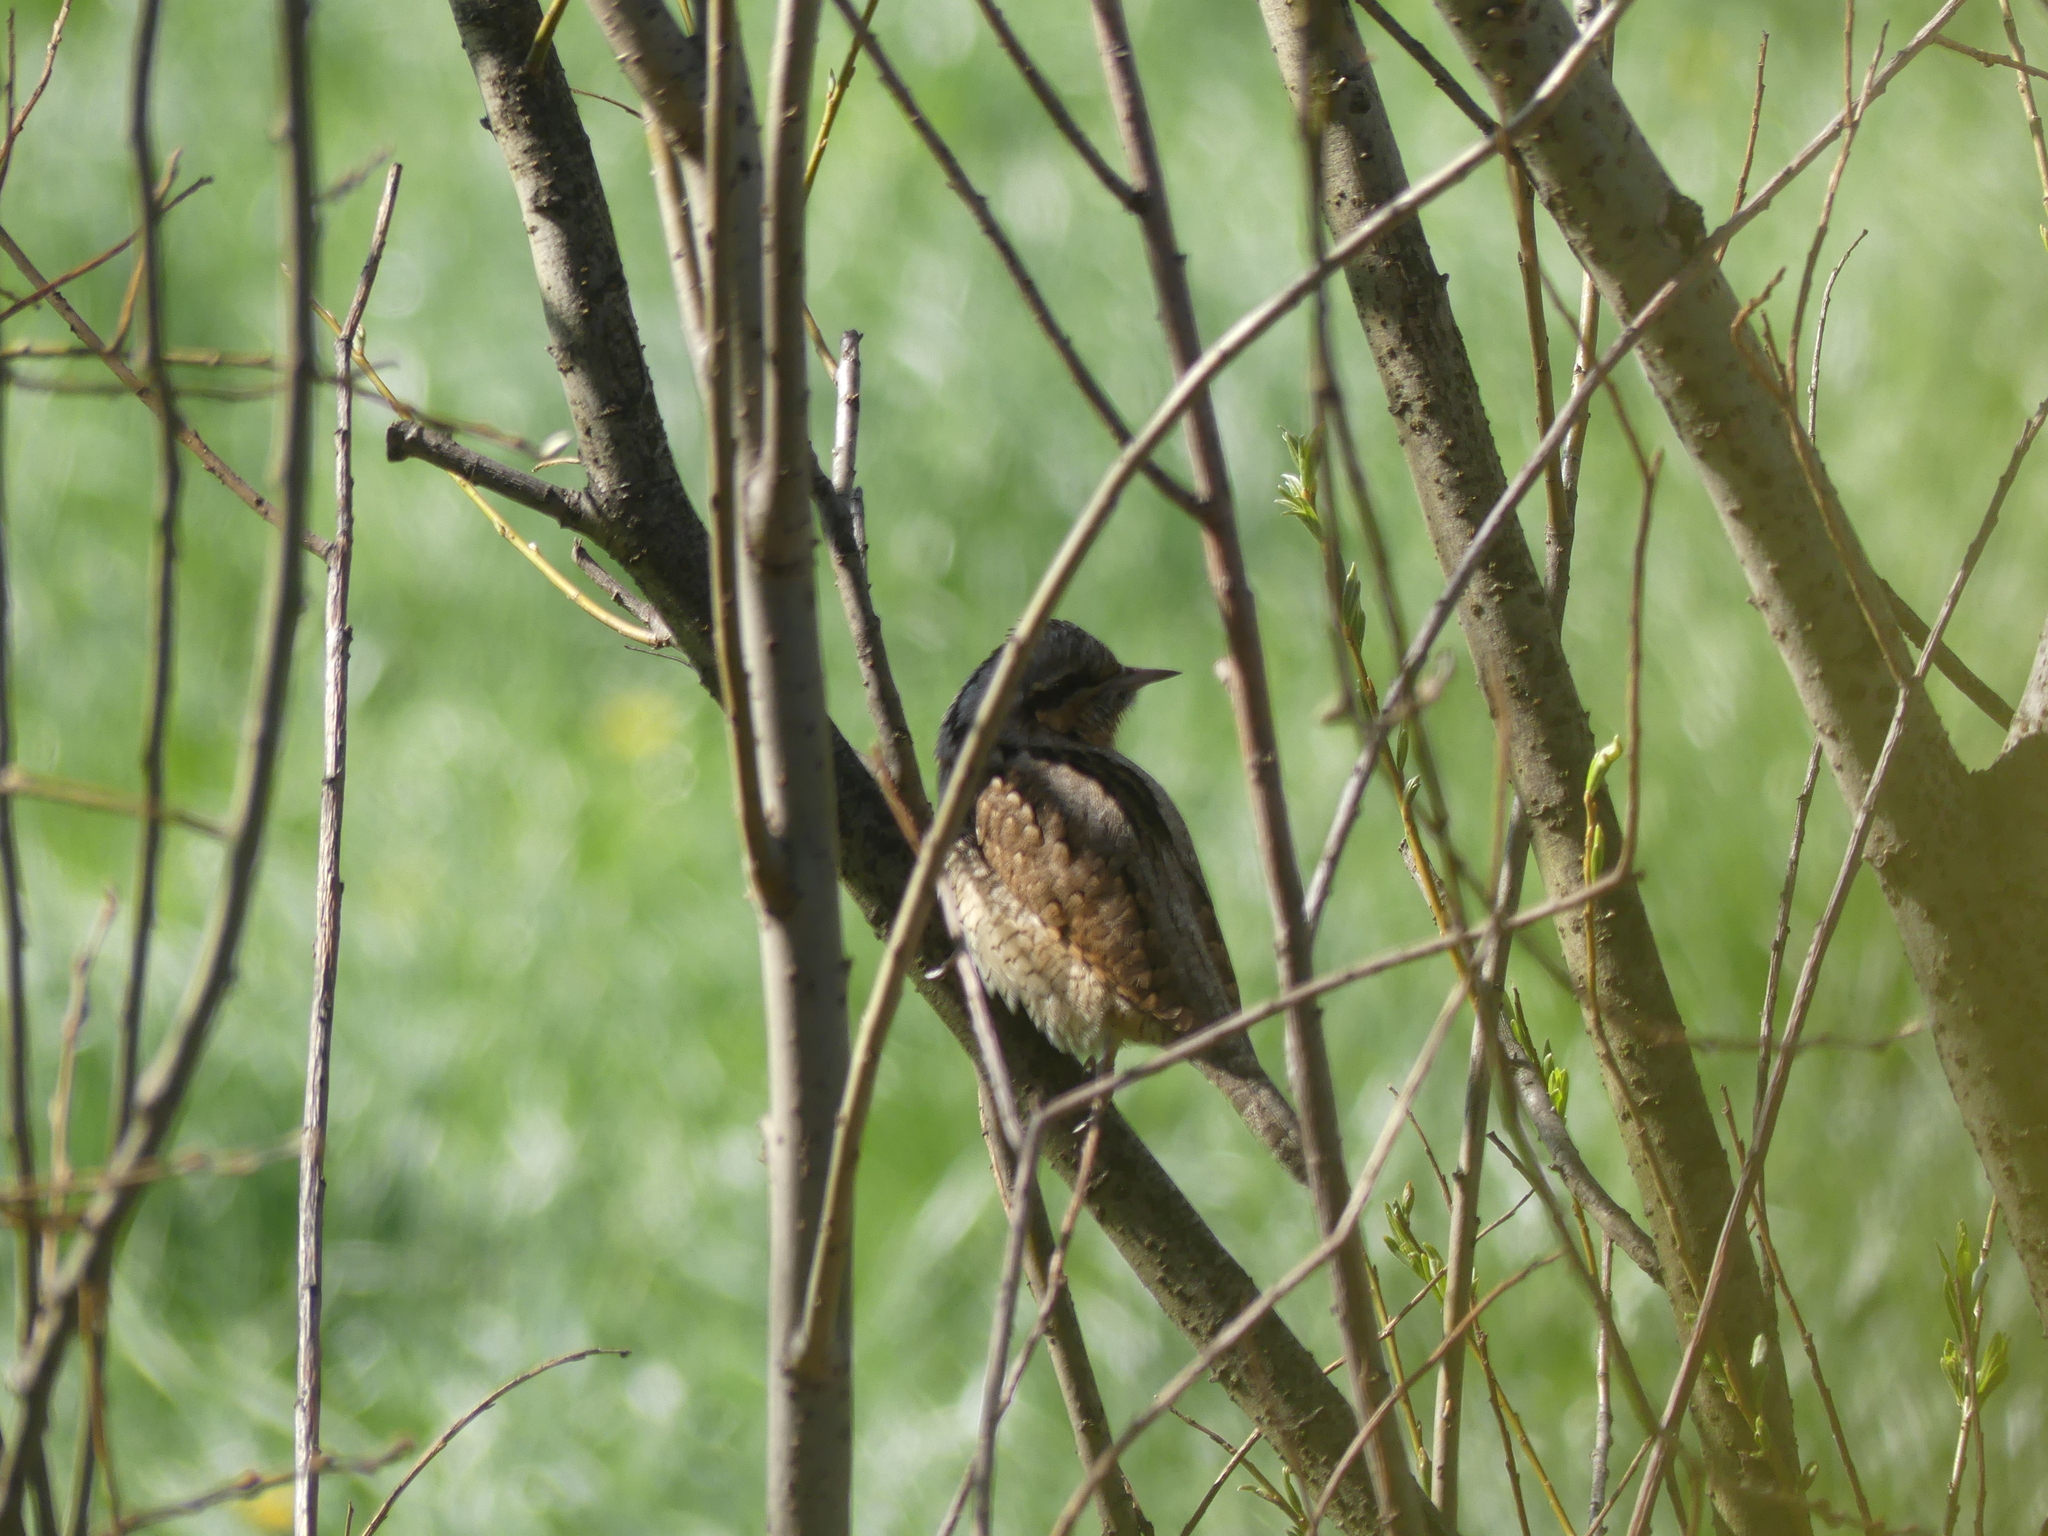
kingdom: Animalia
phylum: Chordata
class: Aves
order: Piciformes
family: Picidae
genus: Jynx
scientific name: Jynx torquilla
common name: Eurasian wryneck
